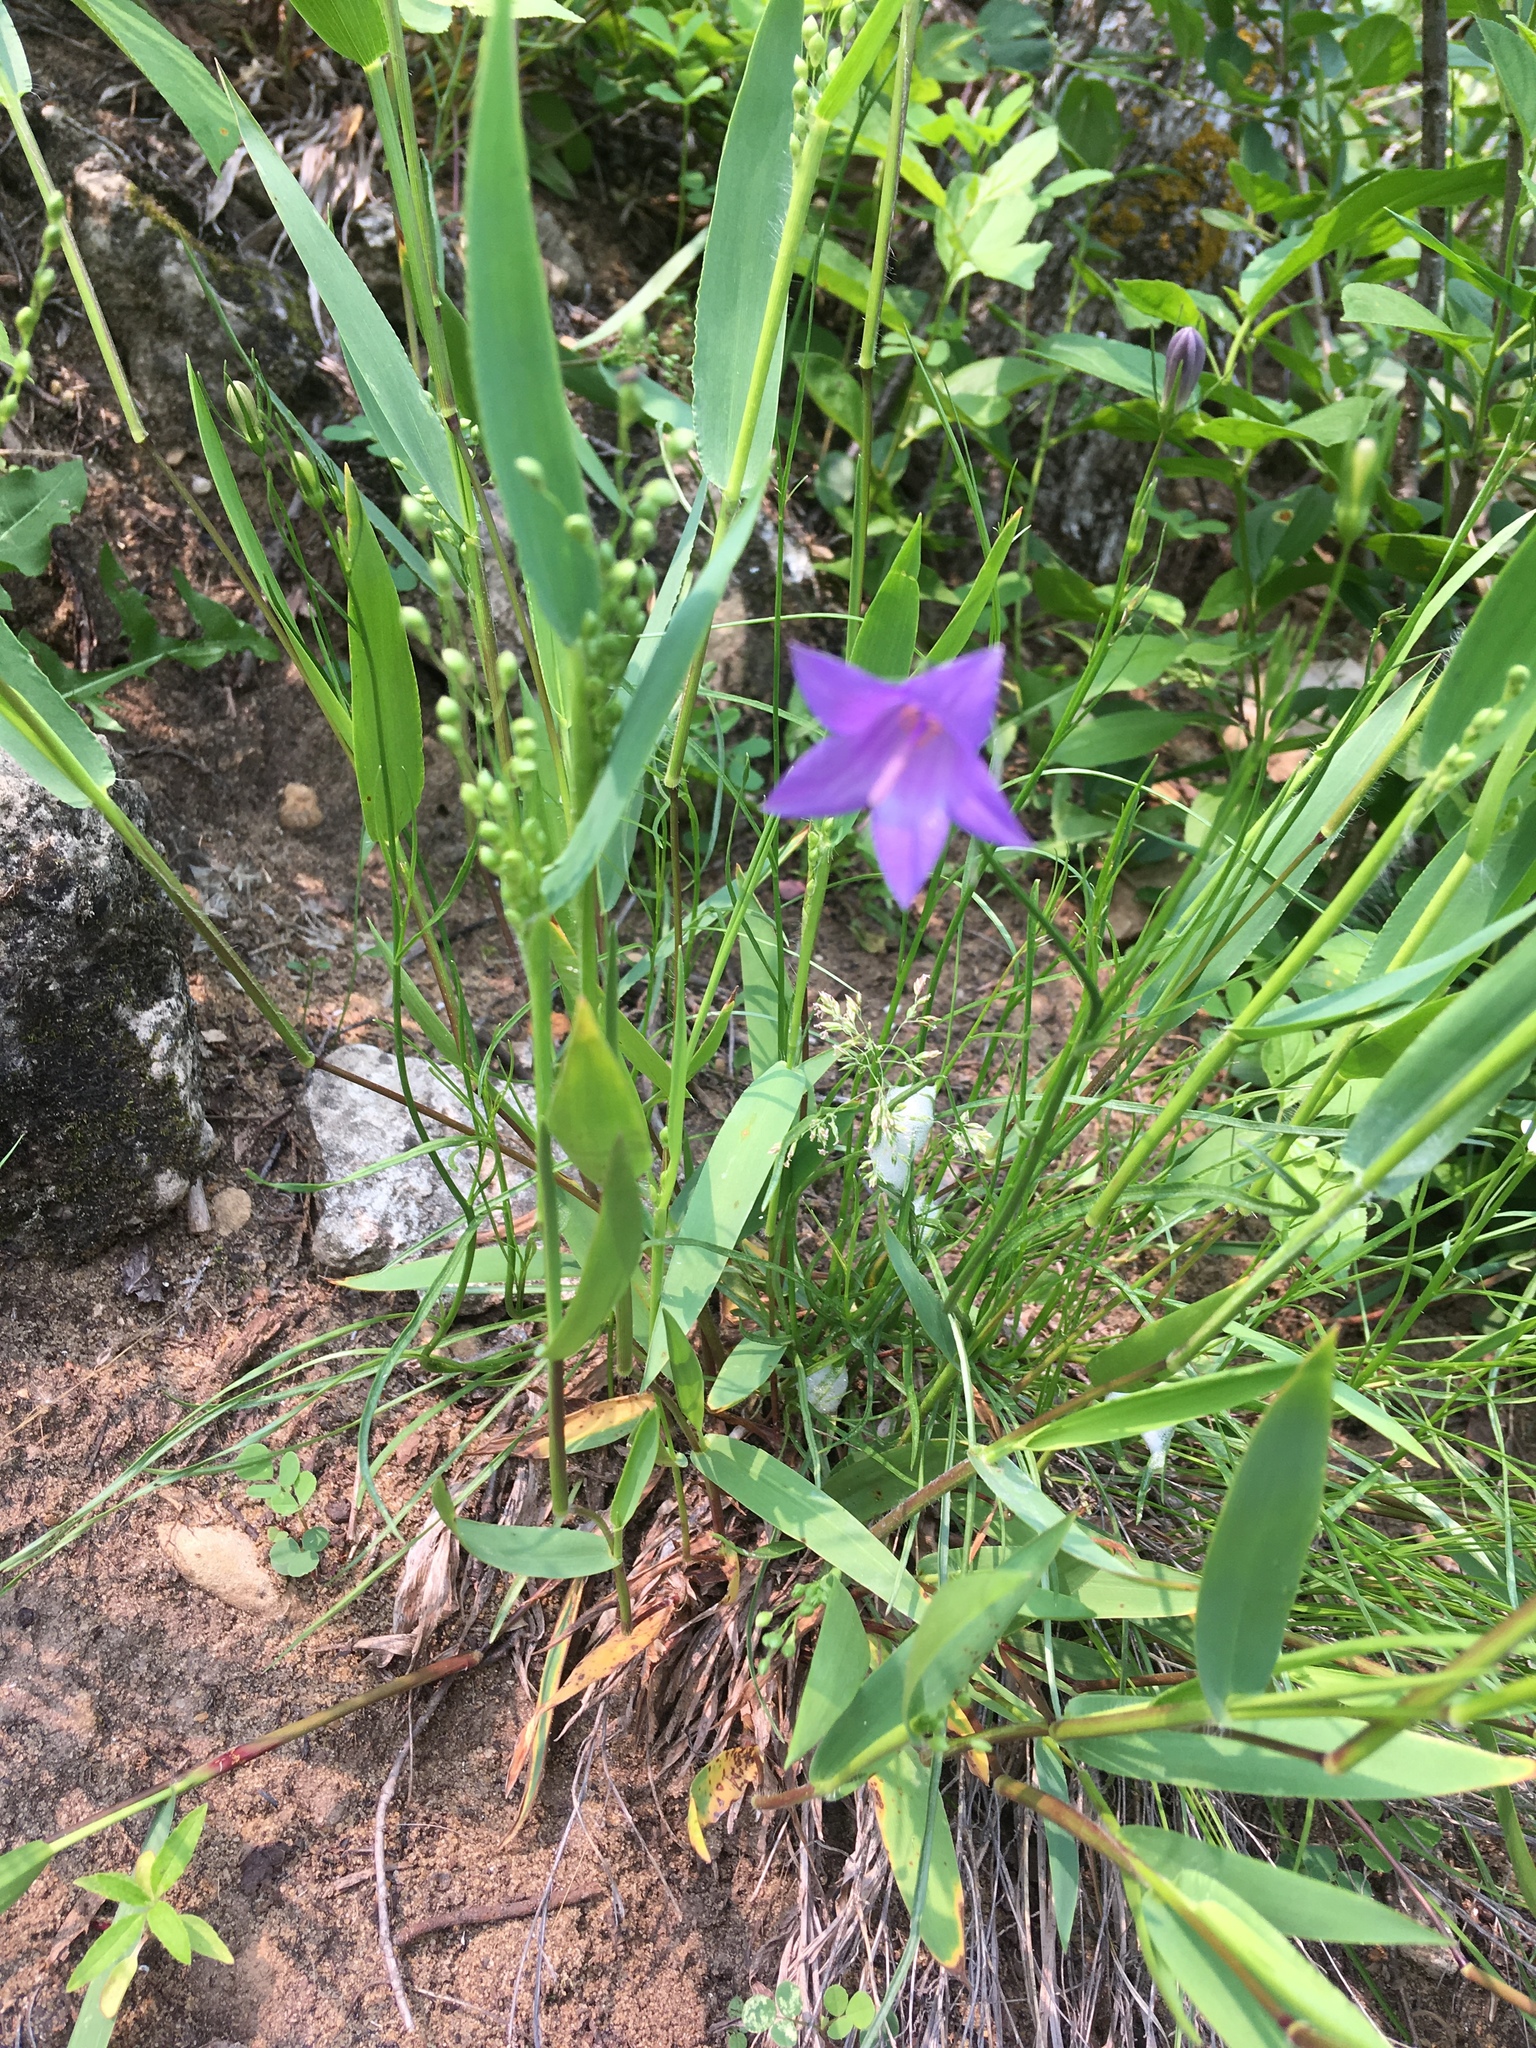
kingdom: Plantae
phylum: Tracheophyta
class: Magnoliopsida
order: Asterales
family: Campanulaceae
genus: Campanula
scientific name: Campanula intercedens
